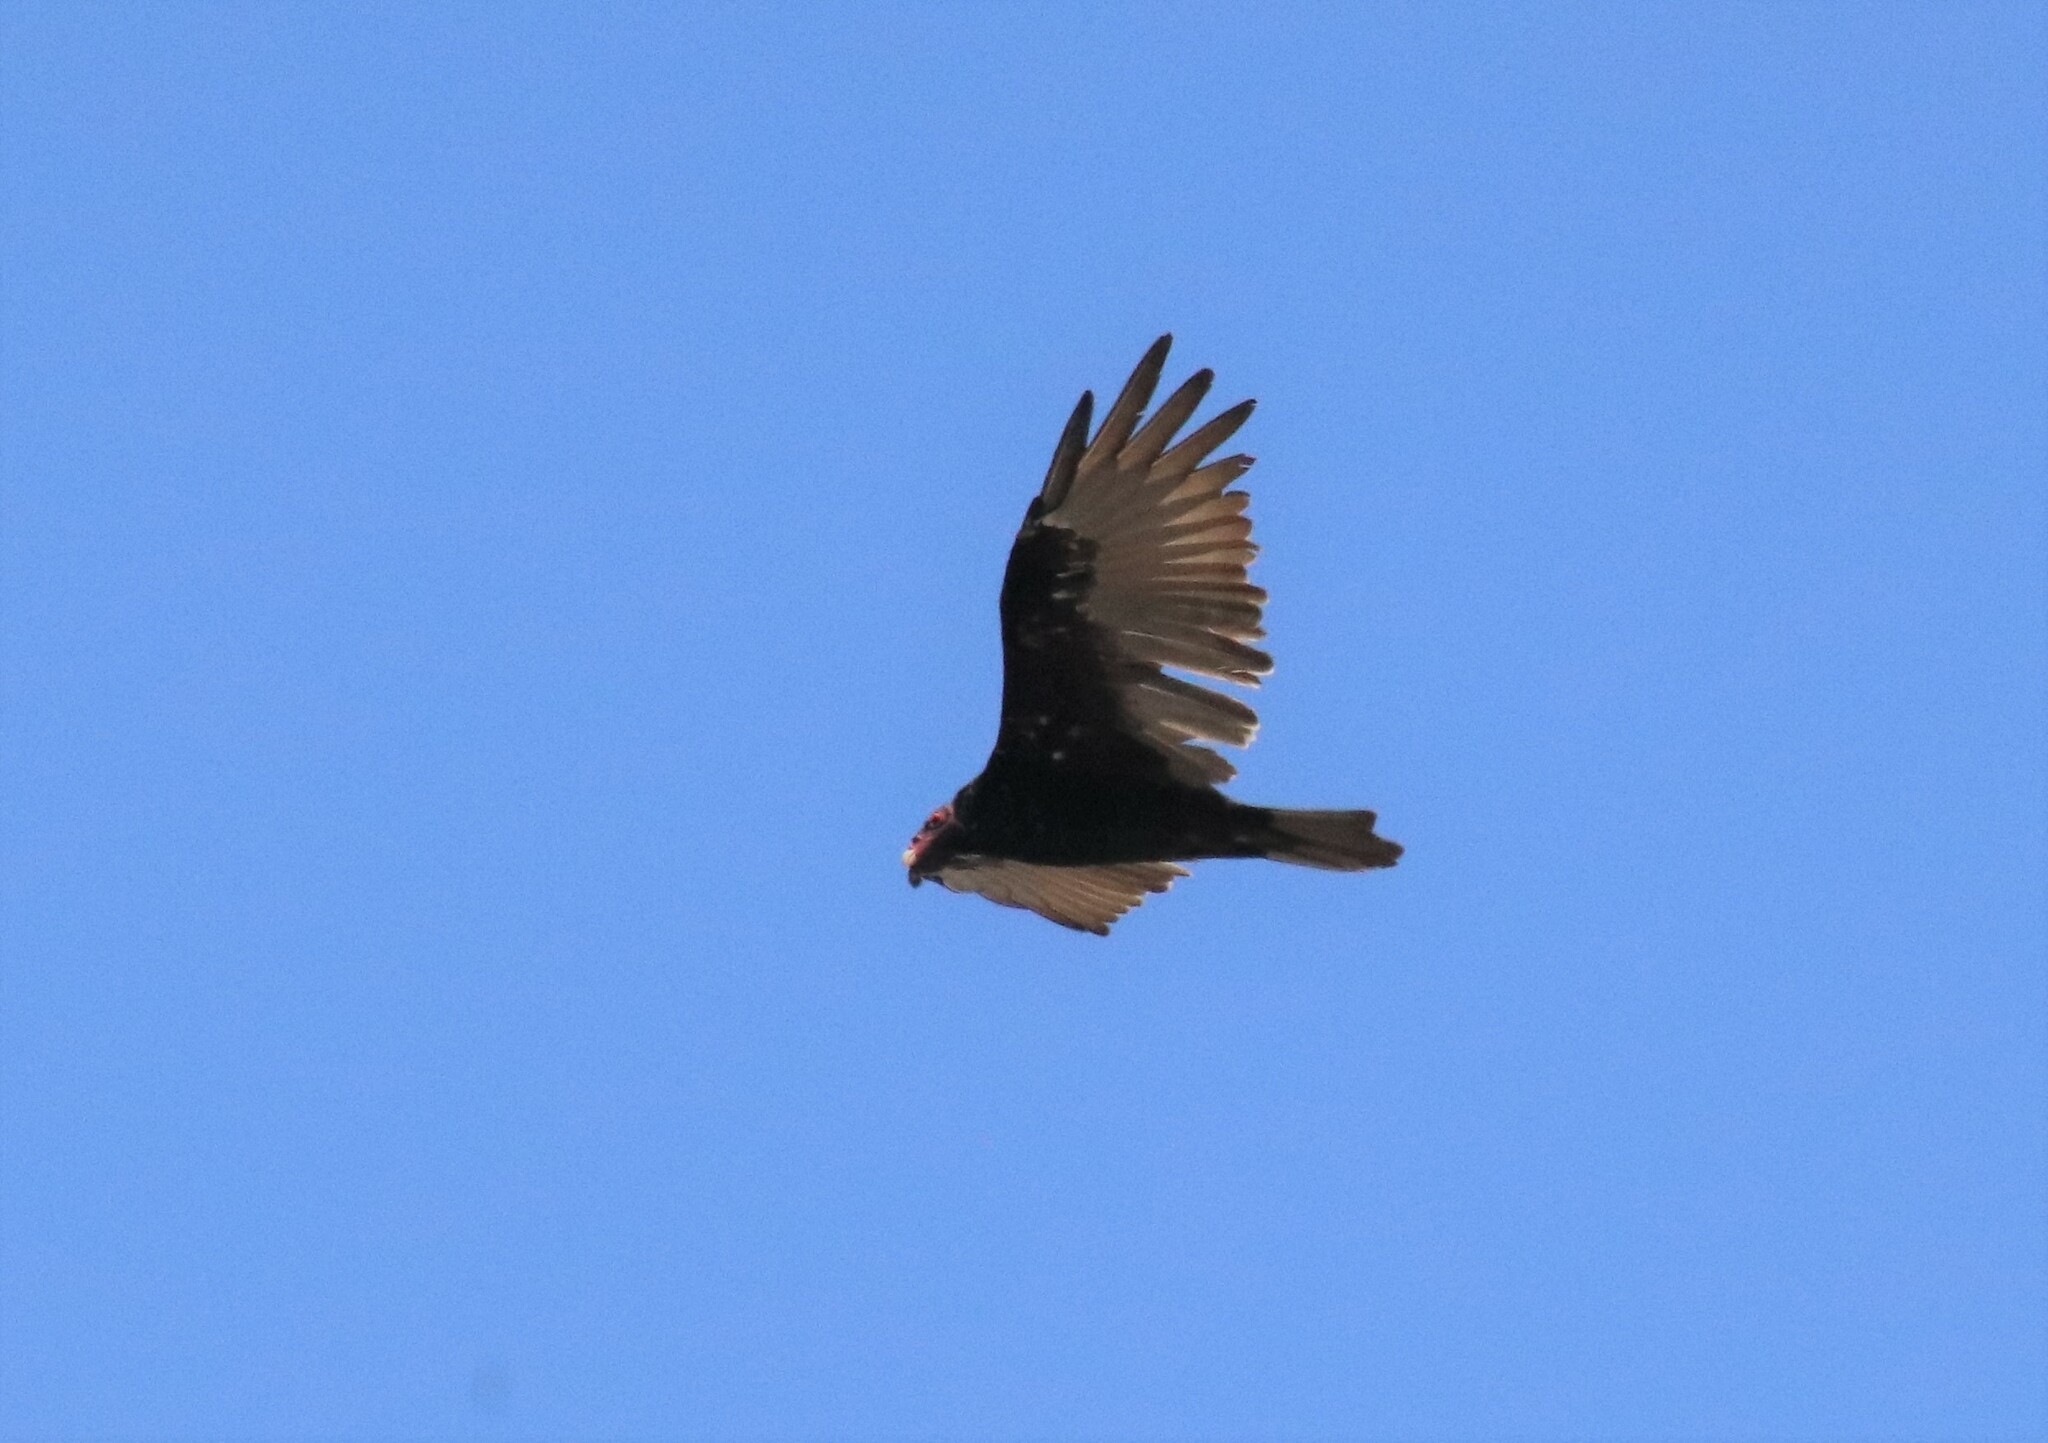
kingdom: Animalia
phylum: Chordata
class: Aves
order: Accipitriformes
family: Cathartidae
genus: Cathartes
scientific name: Cathartes aura
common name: Turkey vulture
